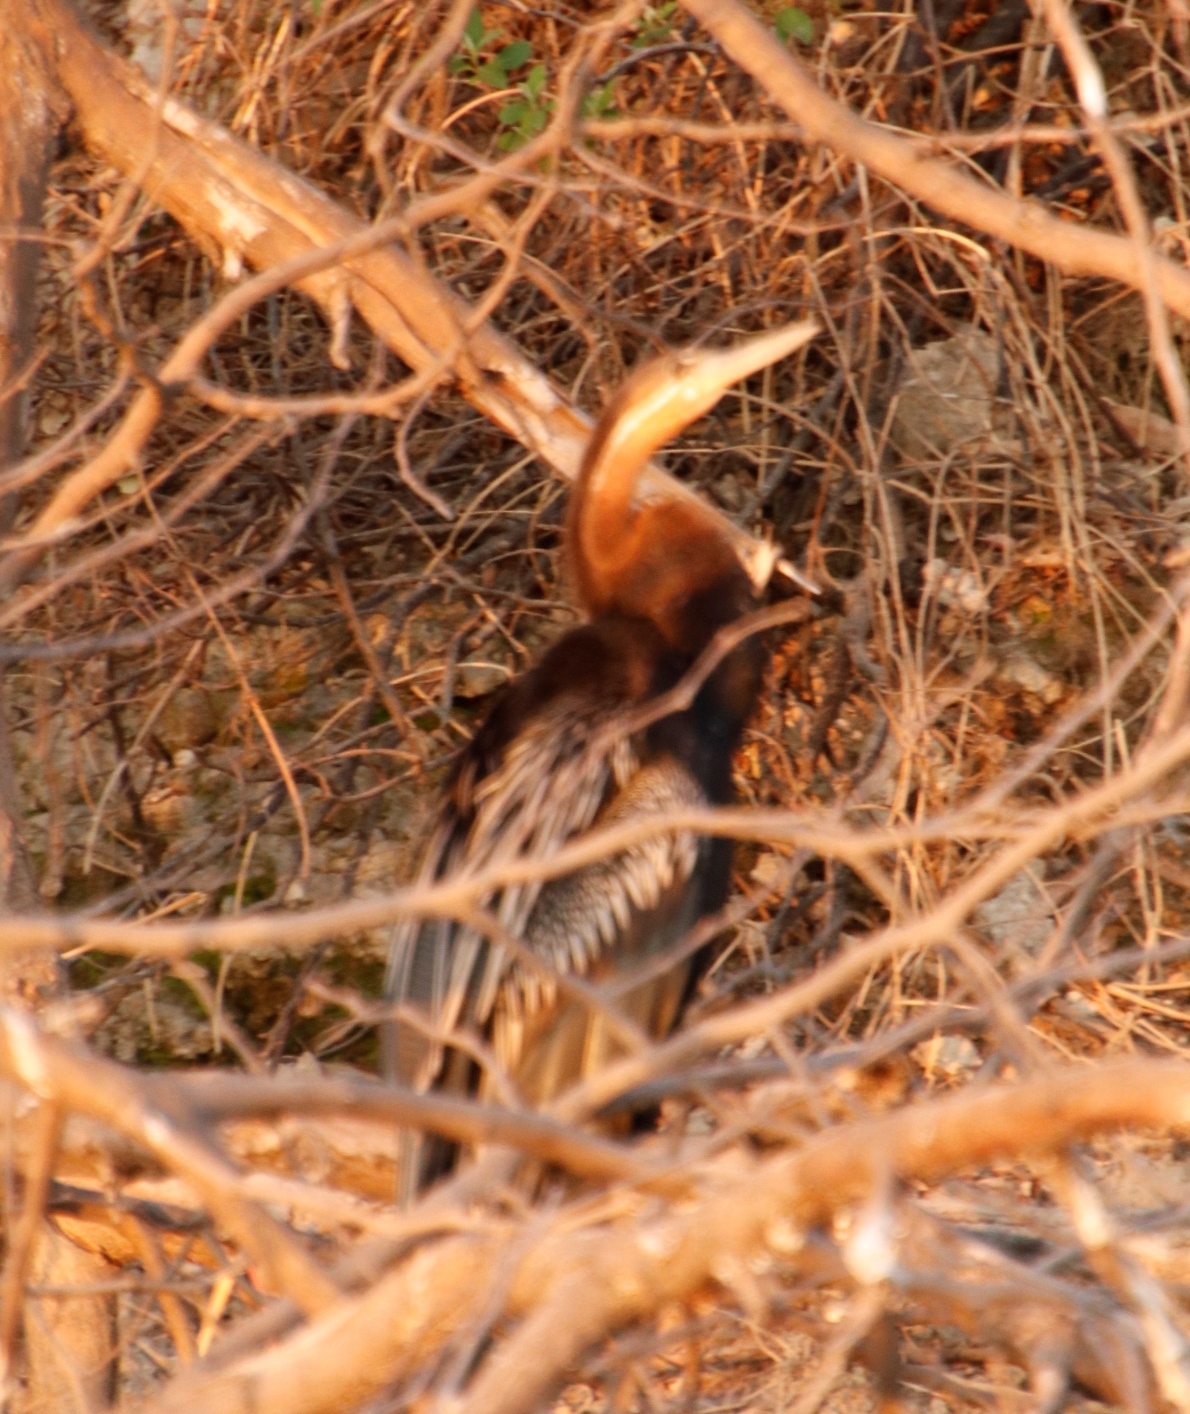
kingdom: Animalia
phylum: Chordata
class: Aves
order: Suliformes
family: Anhingidae
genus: Anhinga
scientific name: Anhinga rufa
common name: African darter
